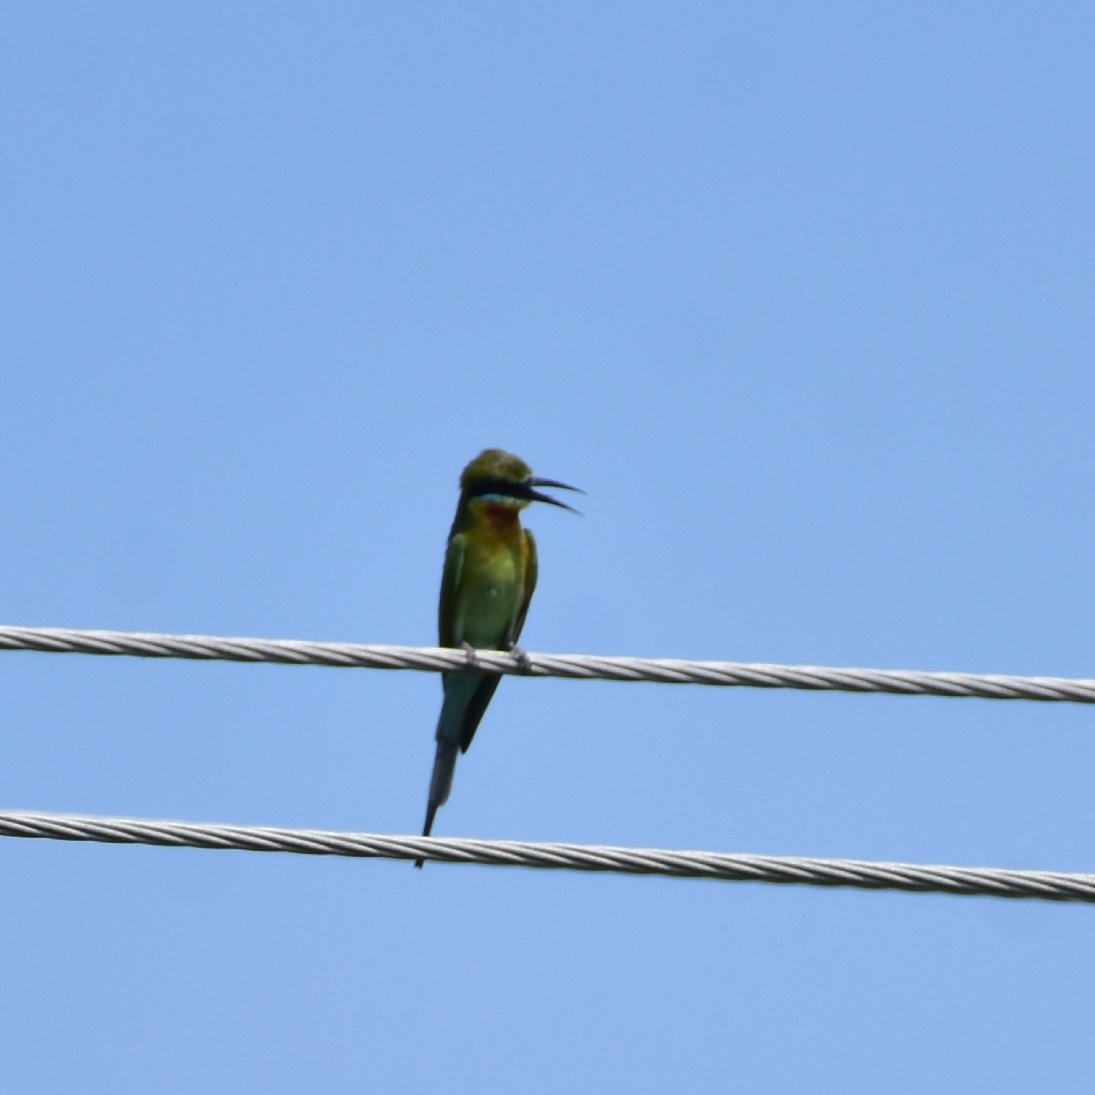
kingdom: Animalia
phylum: Chordata
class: Aves
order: Coraciiformes
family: Meropidae
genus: Merops
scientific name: Merops philippinus
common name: Blue-tailed bee-eater
